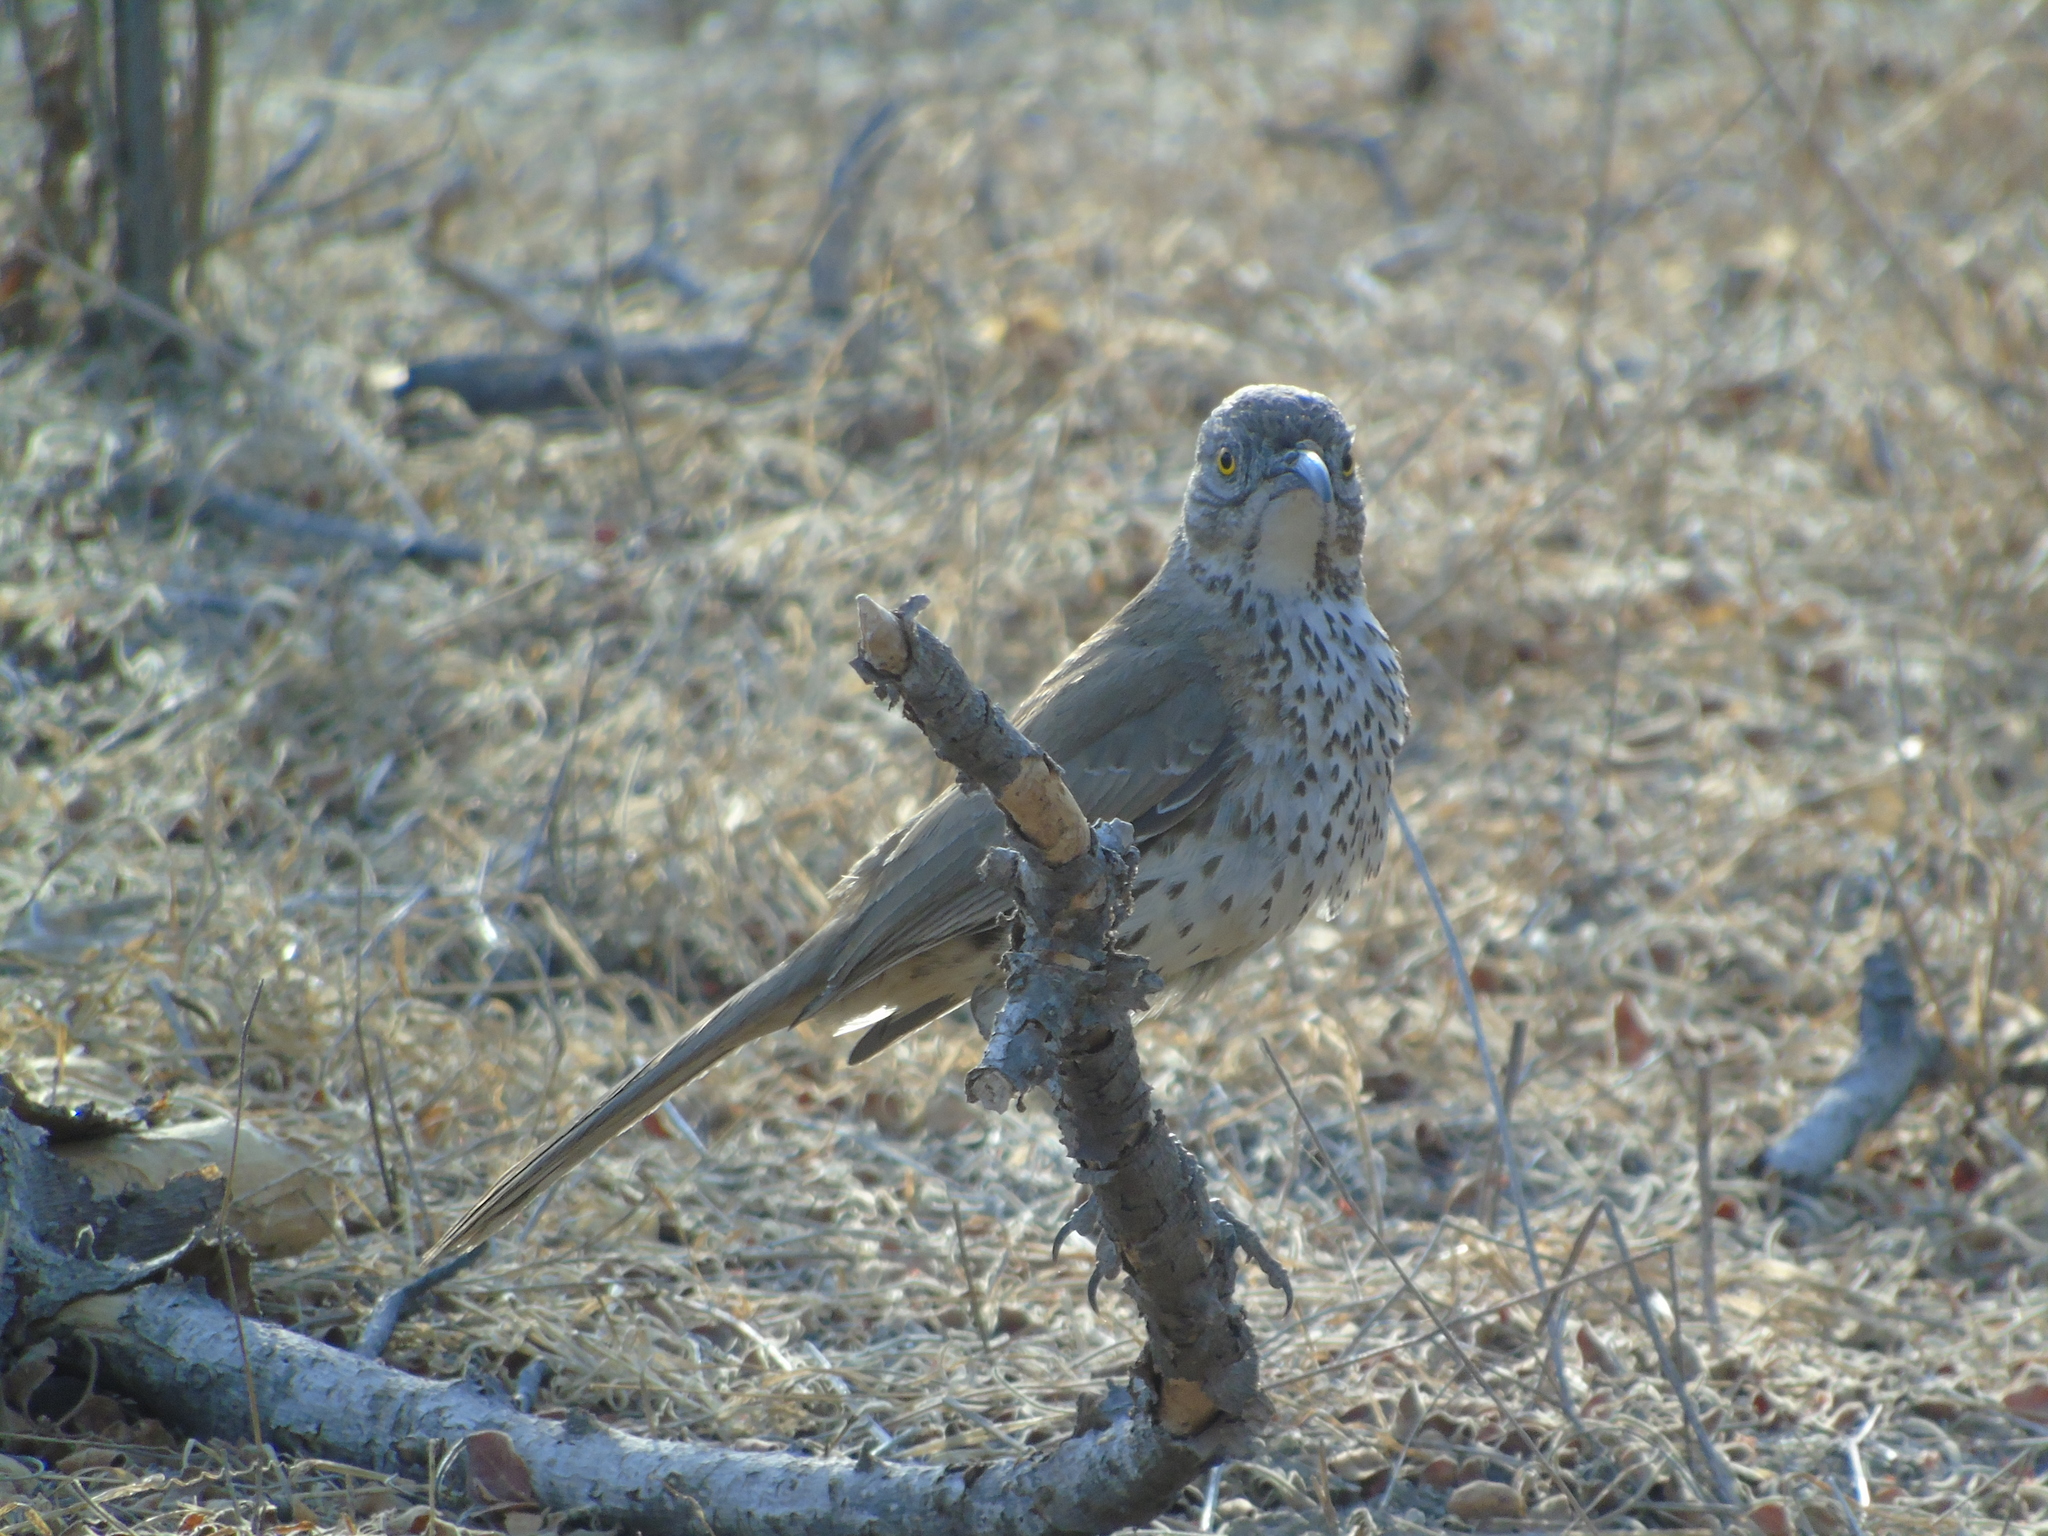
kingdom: Animalia
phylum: Chordata
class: Aves
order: Passeriformes
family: Mimidae
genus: Toxostoma
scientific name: Toxostoma cinereum
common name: Gray thrasher
